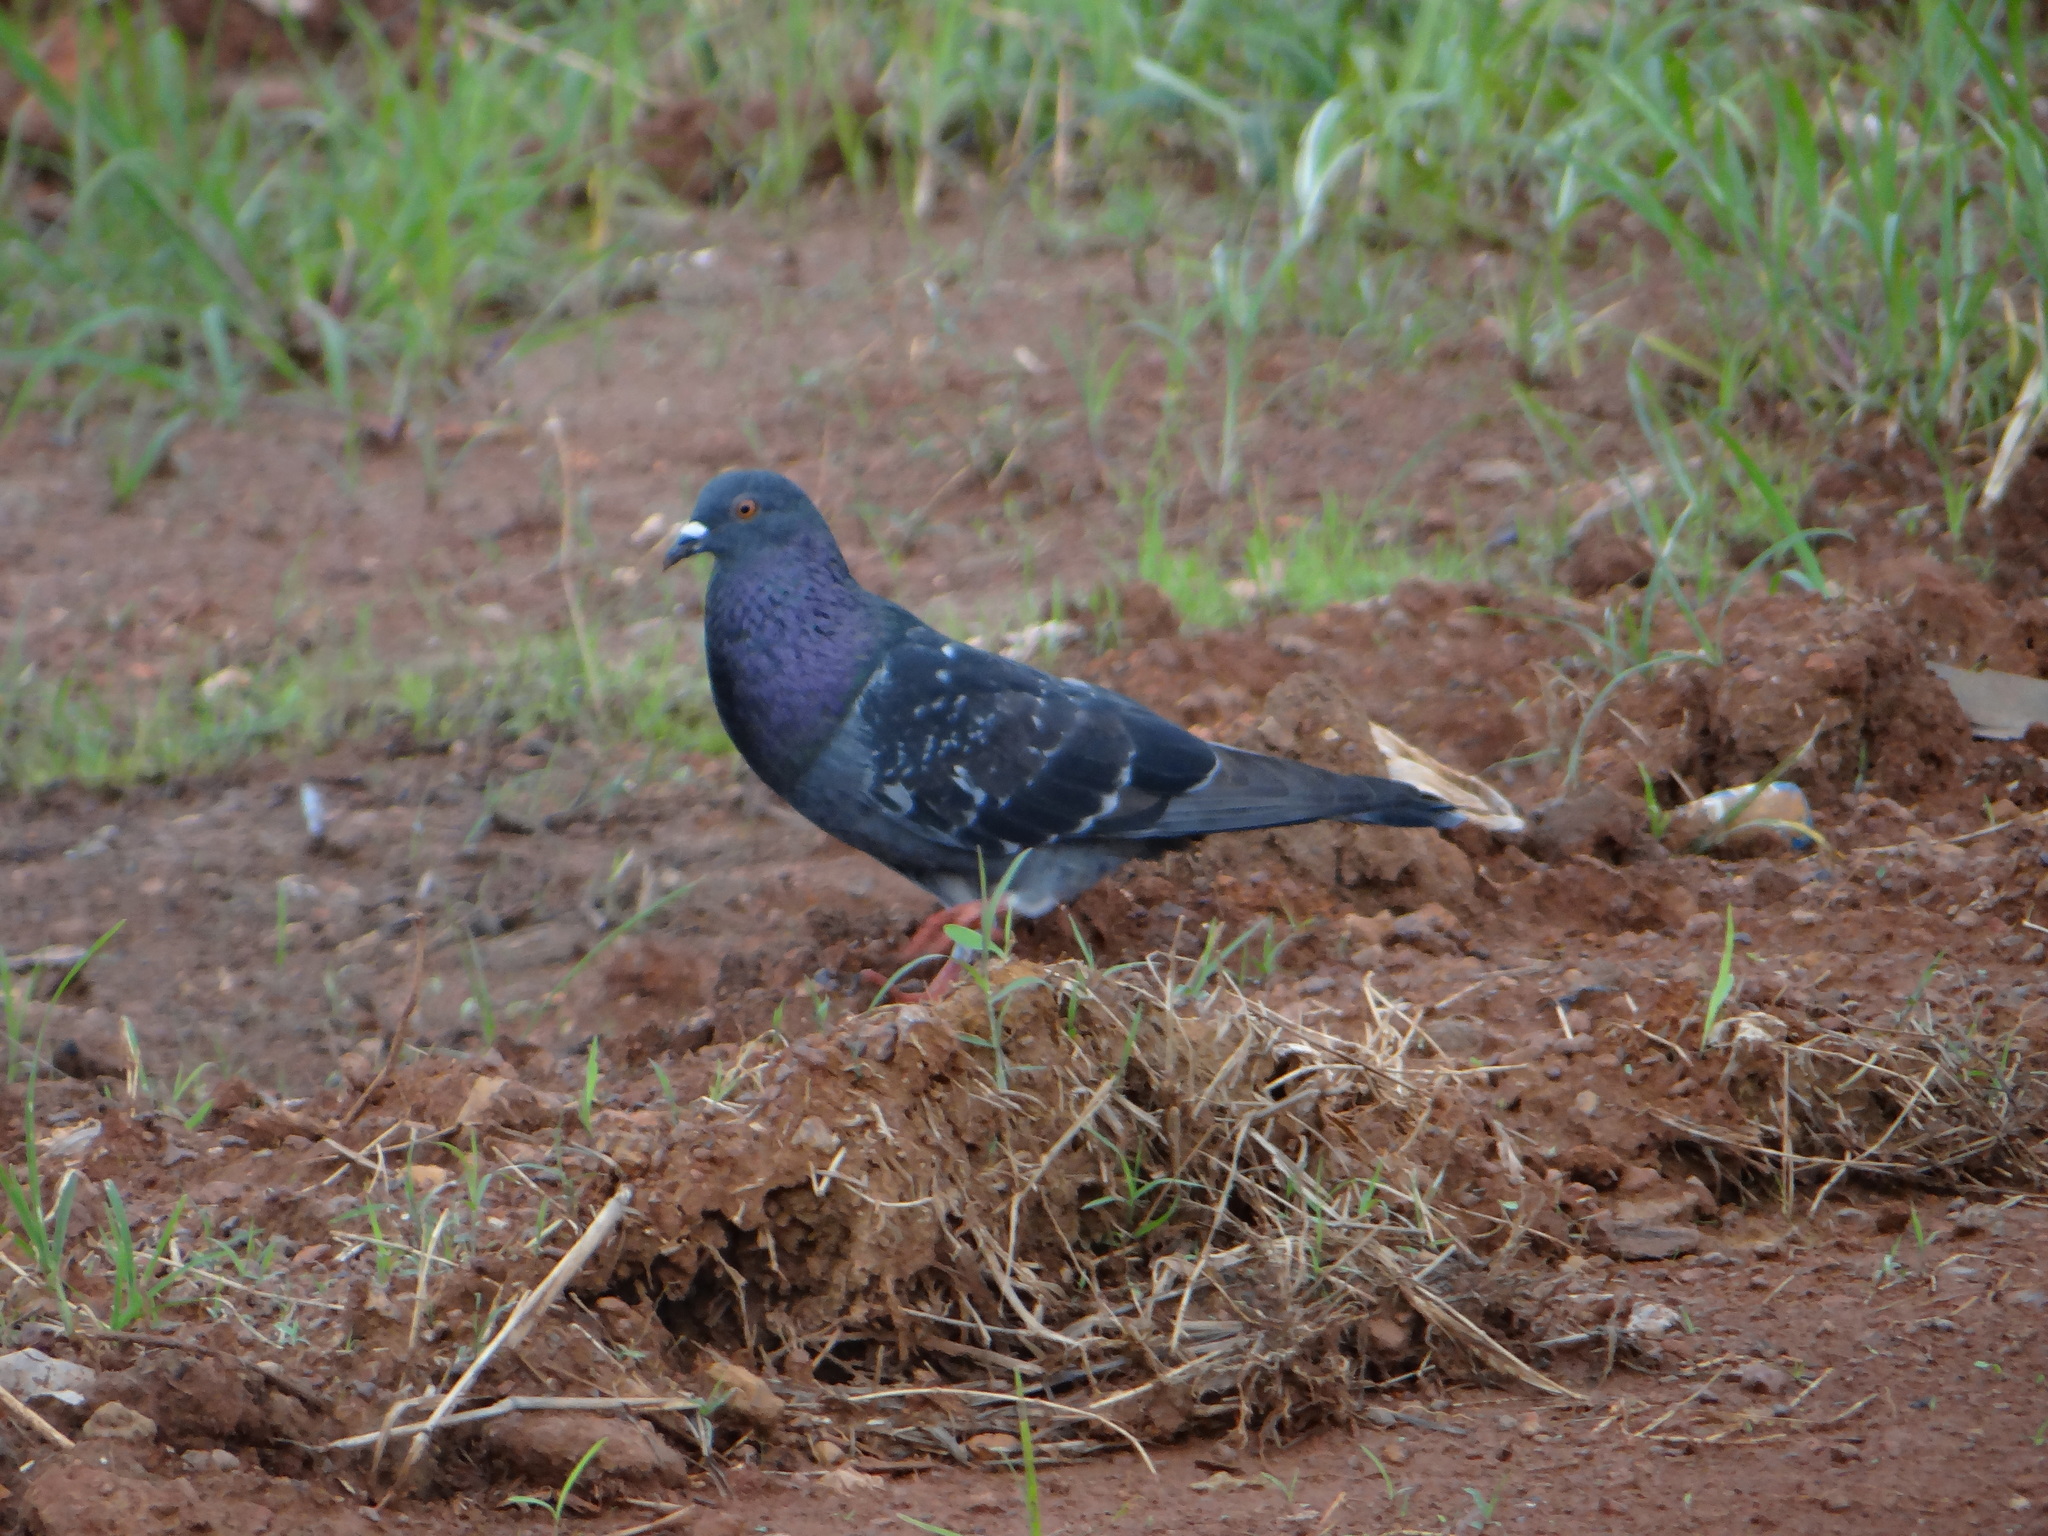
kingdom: Animalia
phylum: Chordata
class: Aves
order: Columbiformes
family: Columbidae
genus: Columba
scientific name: Columba livia
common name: Rock pigeon
